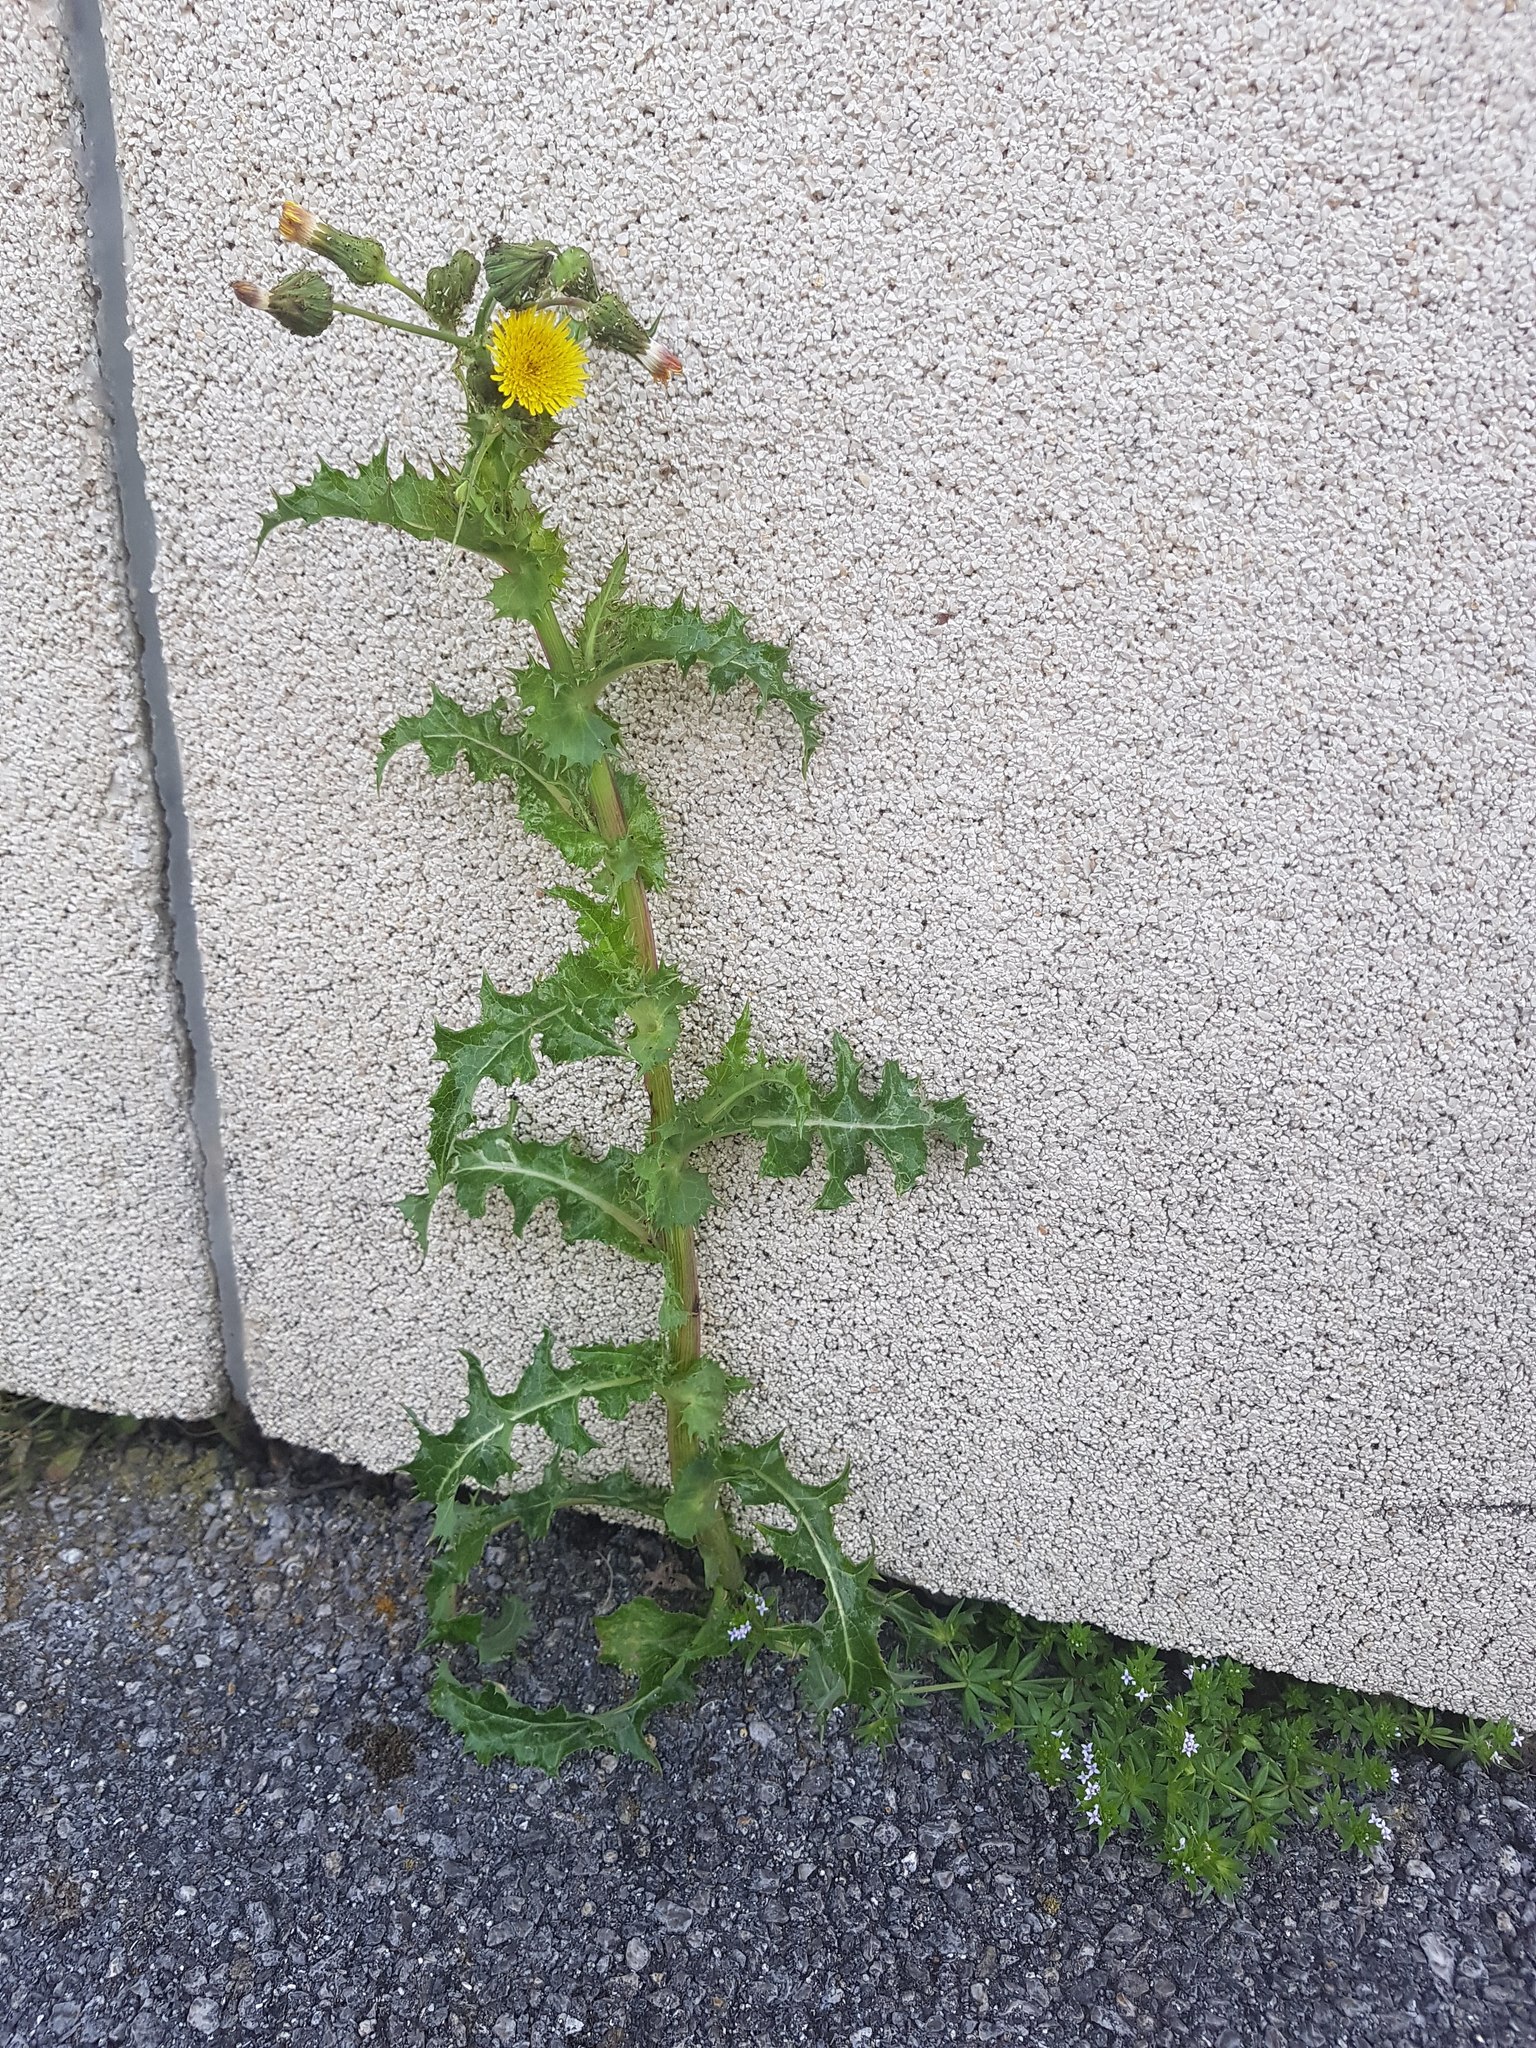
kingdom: Plantae
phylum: Tracheophyta
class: Magnoliopsida
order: Asterales
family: Asteraceae
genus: Sonchus
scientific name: Sonchus asper
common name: Prickly sow-thistle
